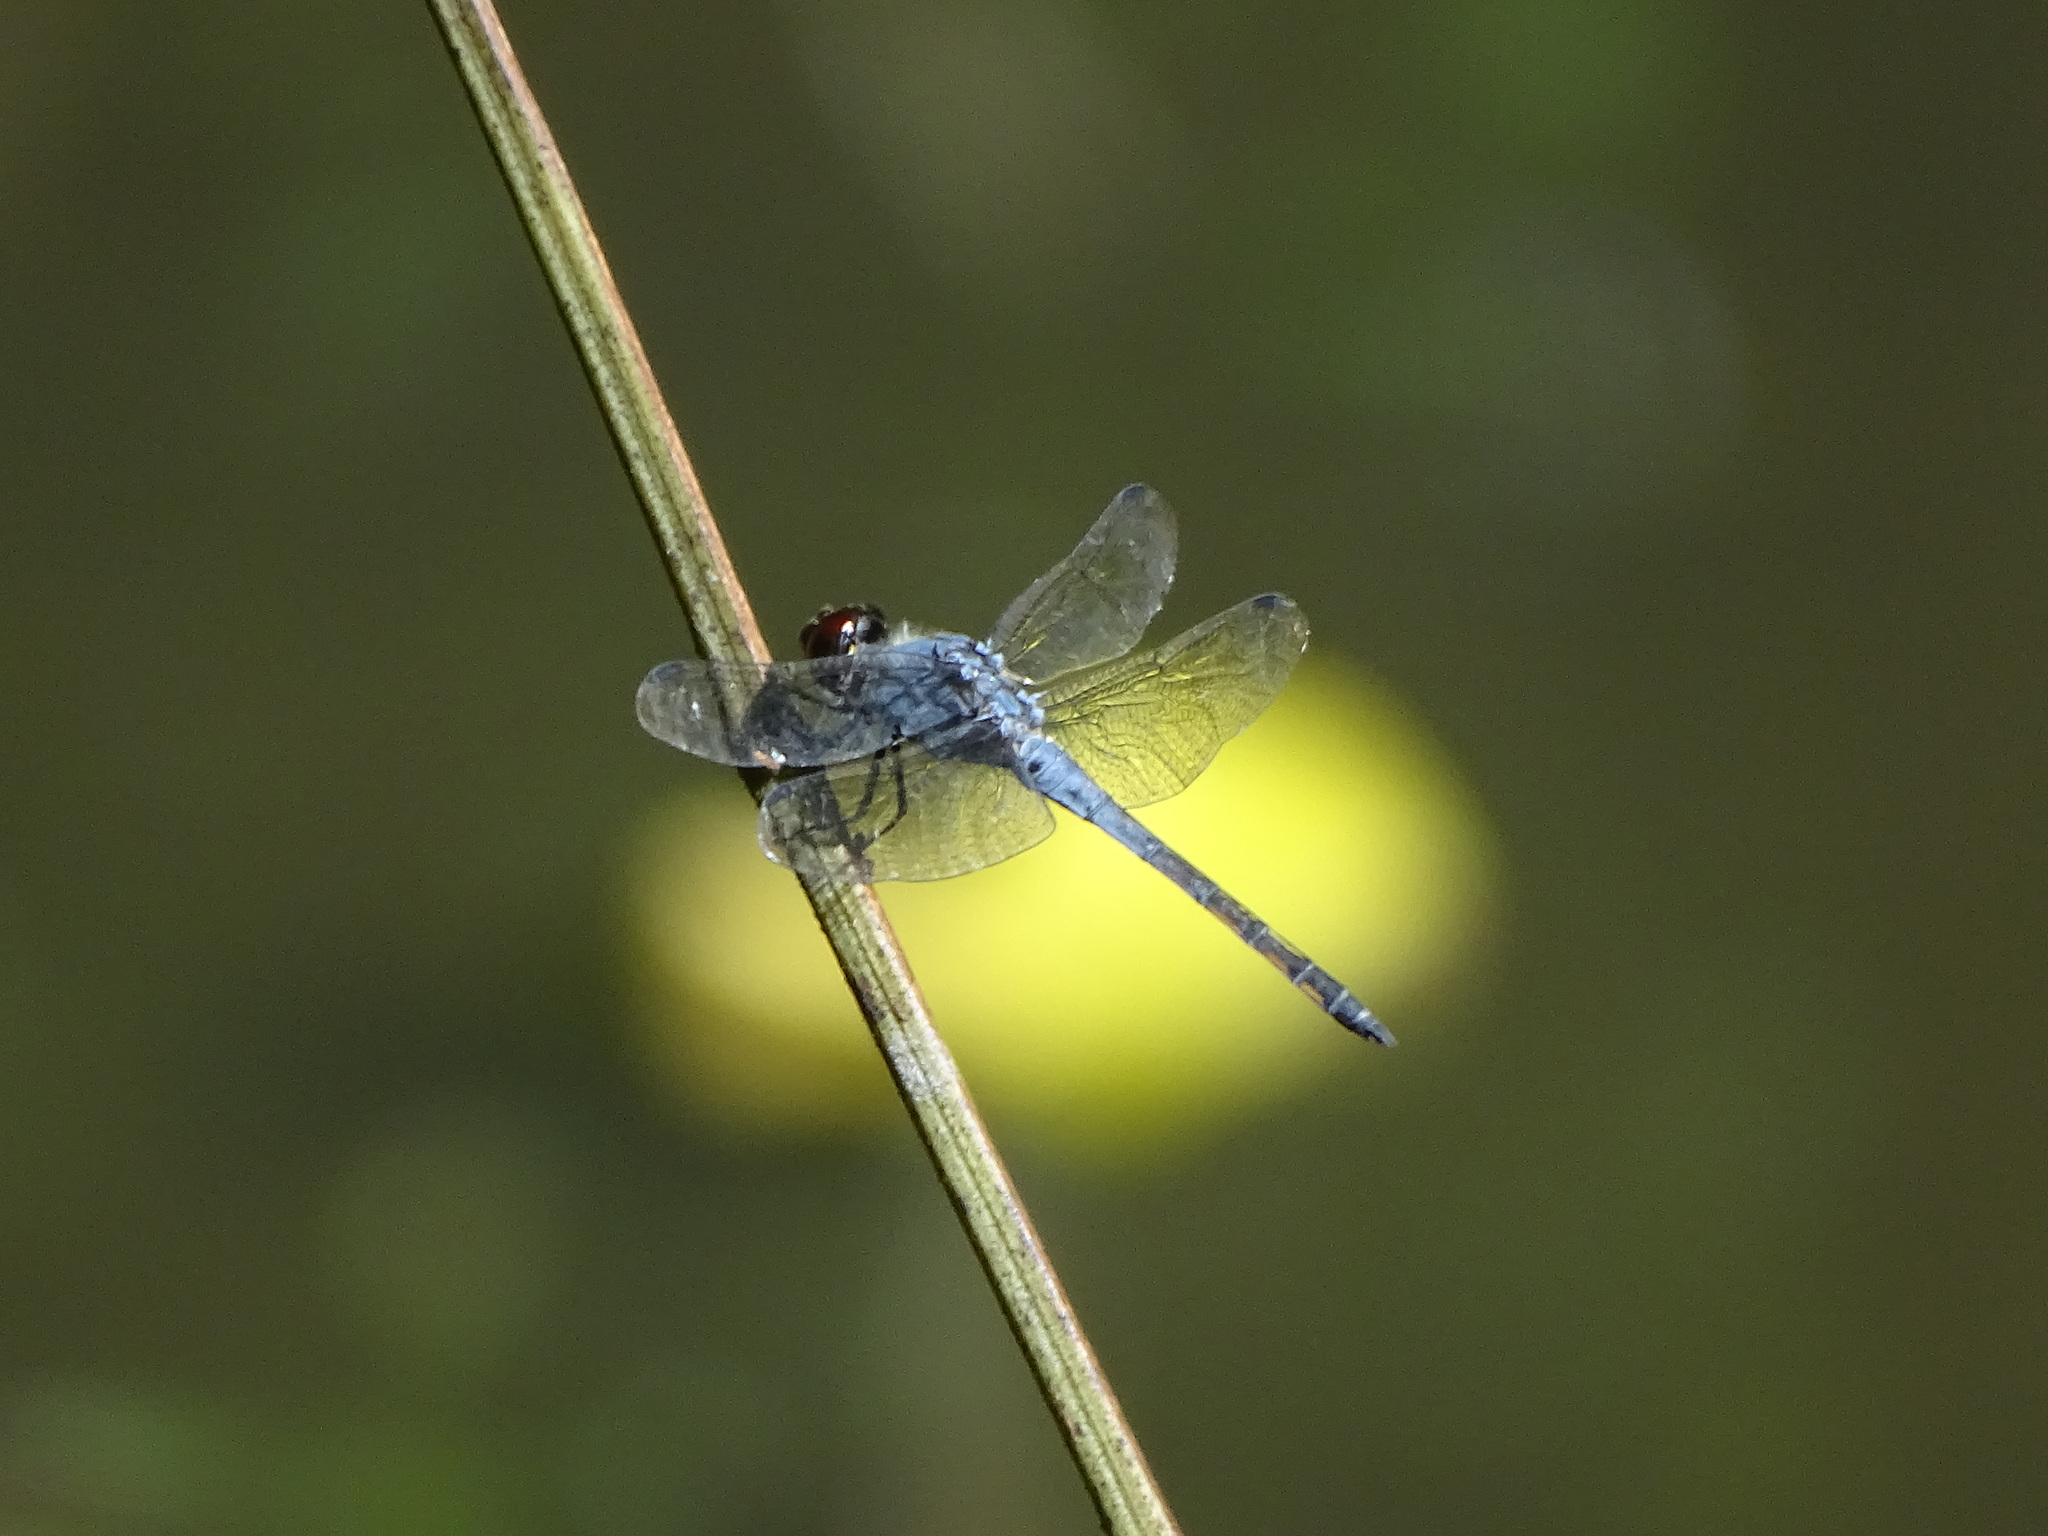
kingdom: Animalia
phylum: Arthropoda
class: Insecta
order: Odonata
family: Libellulidae
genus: Potamarcha
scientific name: Potamarcha congener
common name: Blue chaser
